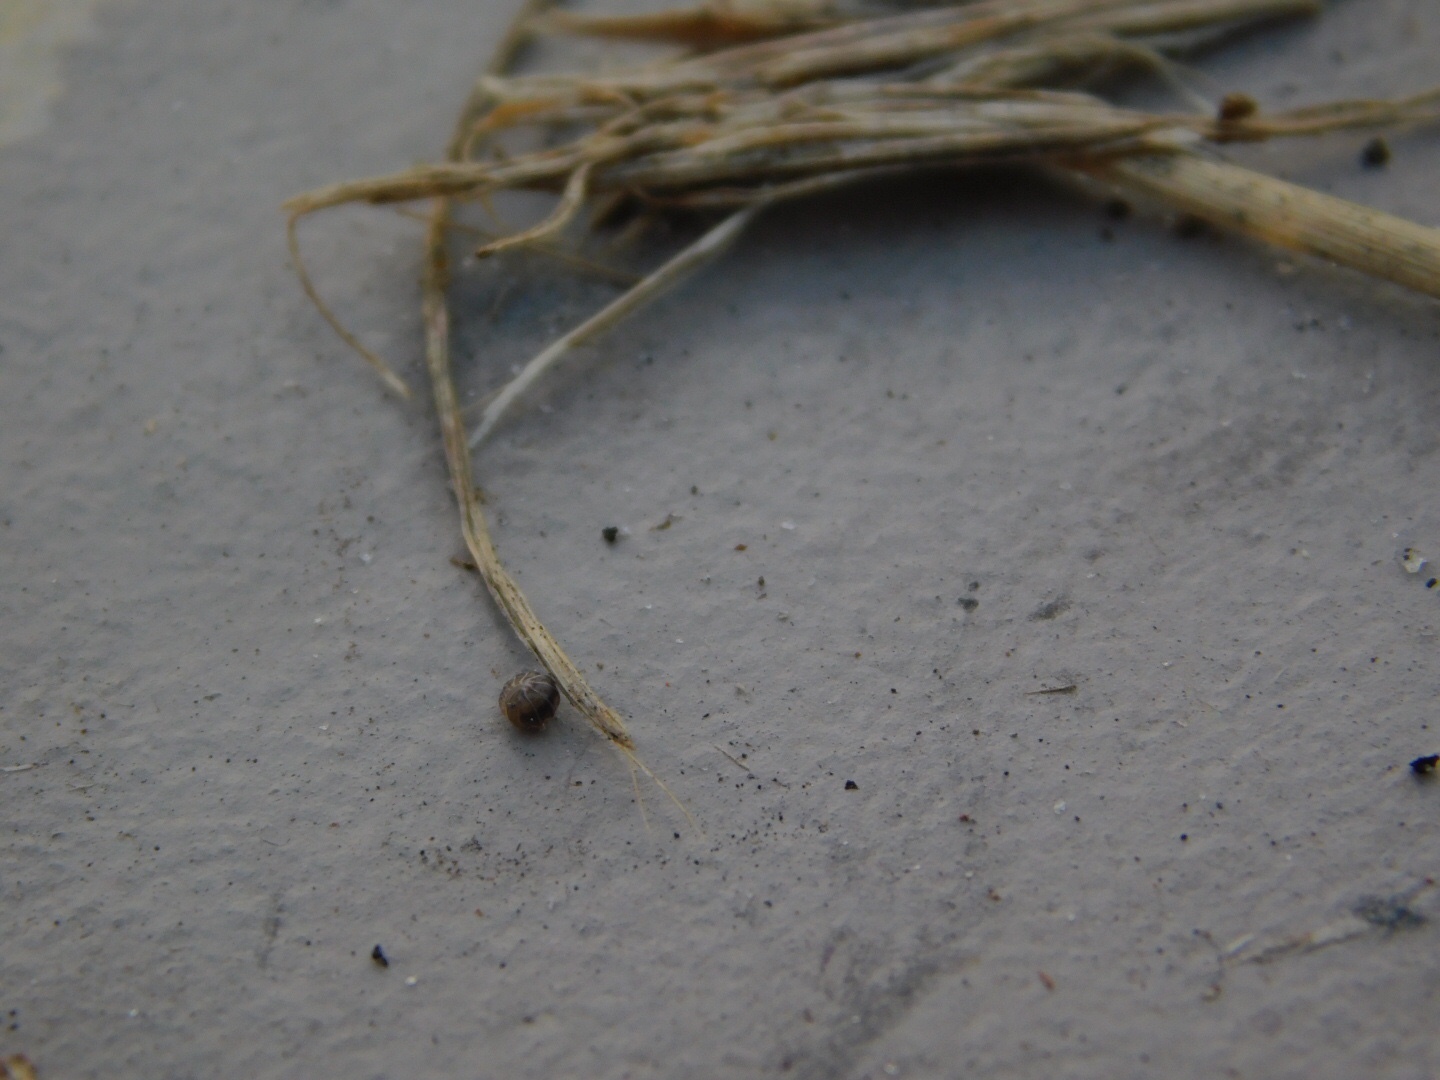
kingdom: Animalia
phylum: Arthropoda
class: Malacostraca
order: Isopoda
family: Armadillidae
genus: Venezillo
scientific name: Venezillo parvus
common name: Pillbug
